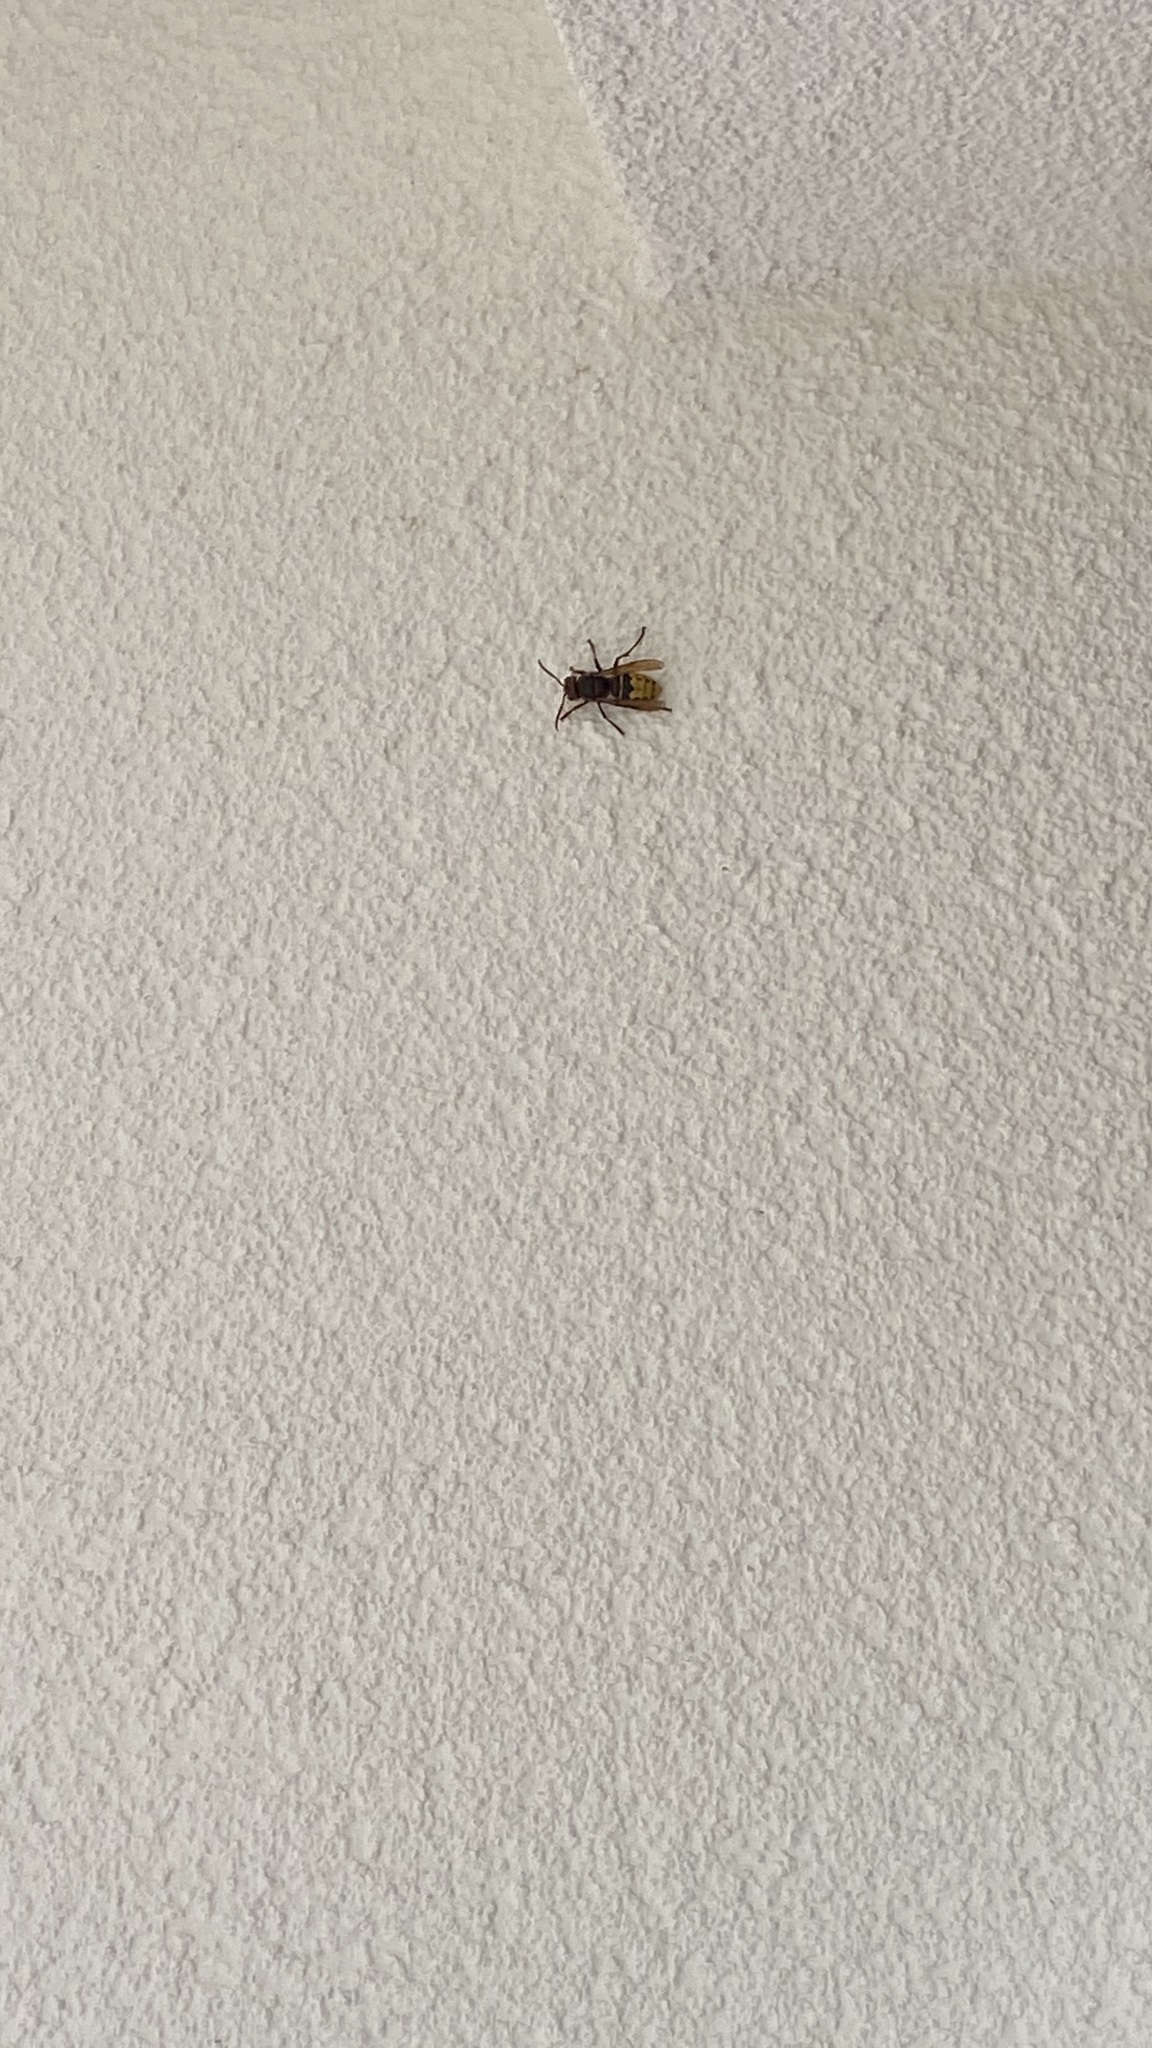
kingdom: Animalia
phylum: Arthropoda
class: Insecta
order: Hymenoptera
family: Vespidae
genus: Vespa
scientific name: Vespa crabro
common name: Hornet
